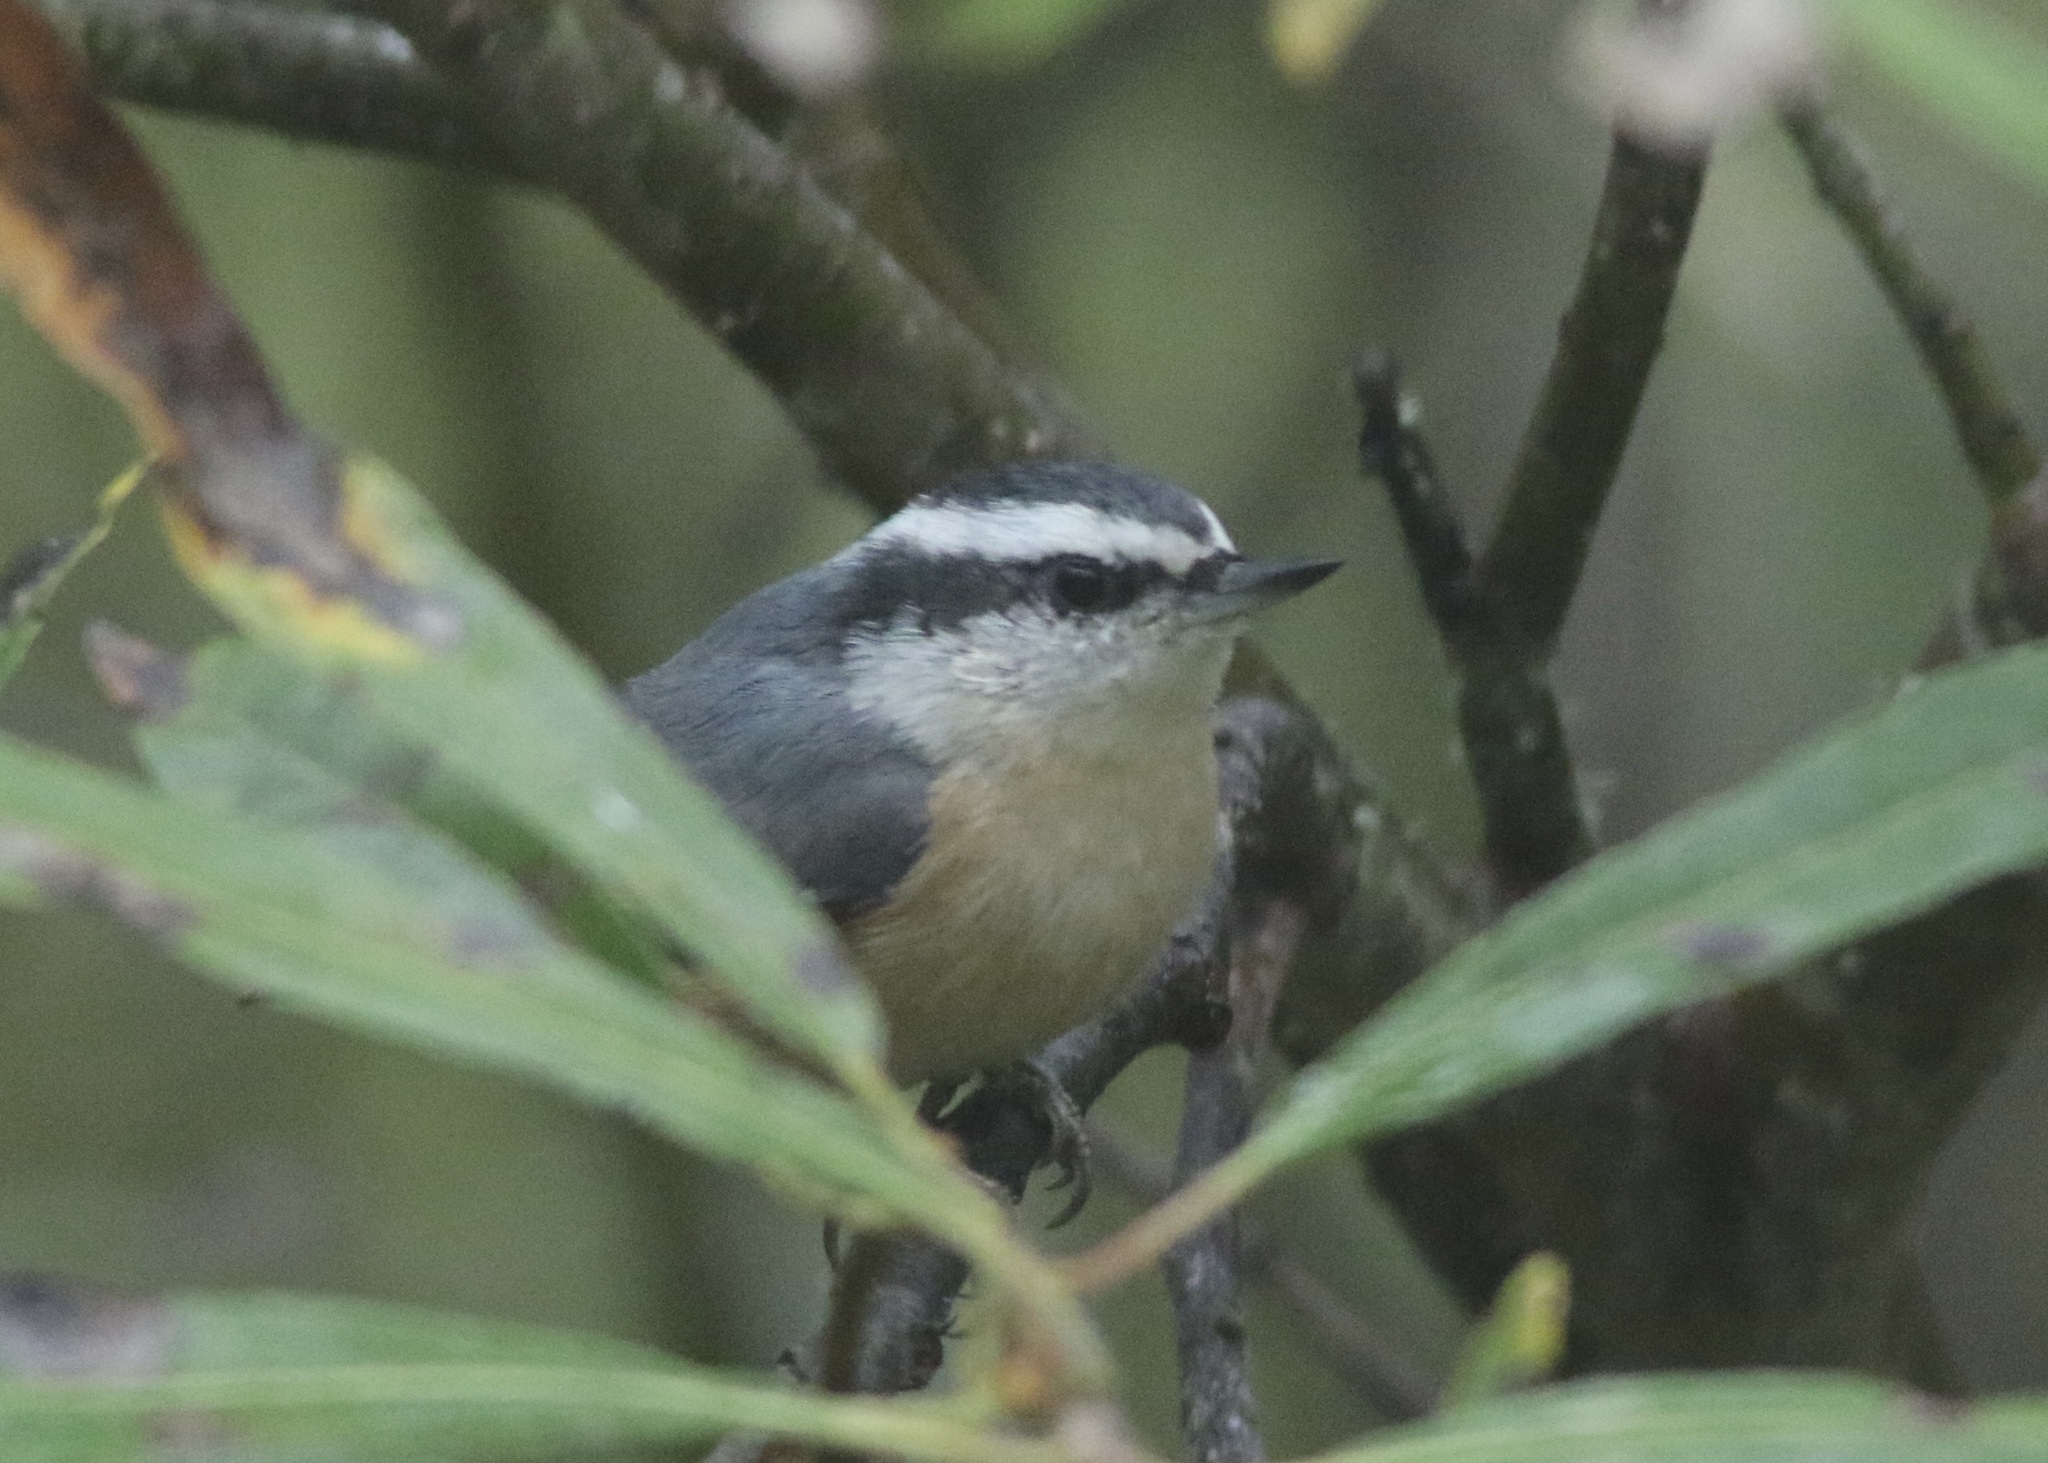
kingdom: Animalia
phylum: Chordata
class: Aves
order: Passeriformes
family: Sittidae
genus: Sitta
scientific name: Sitta canadensis
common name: Red-breasted nuthatch
